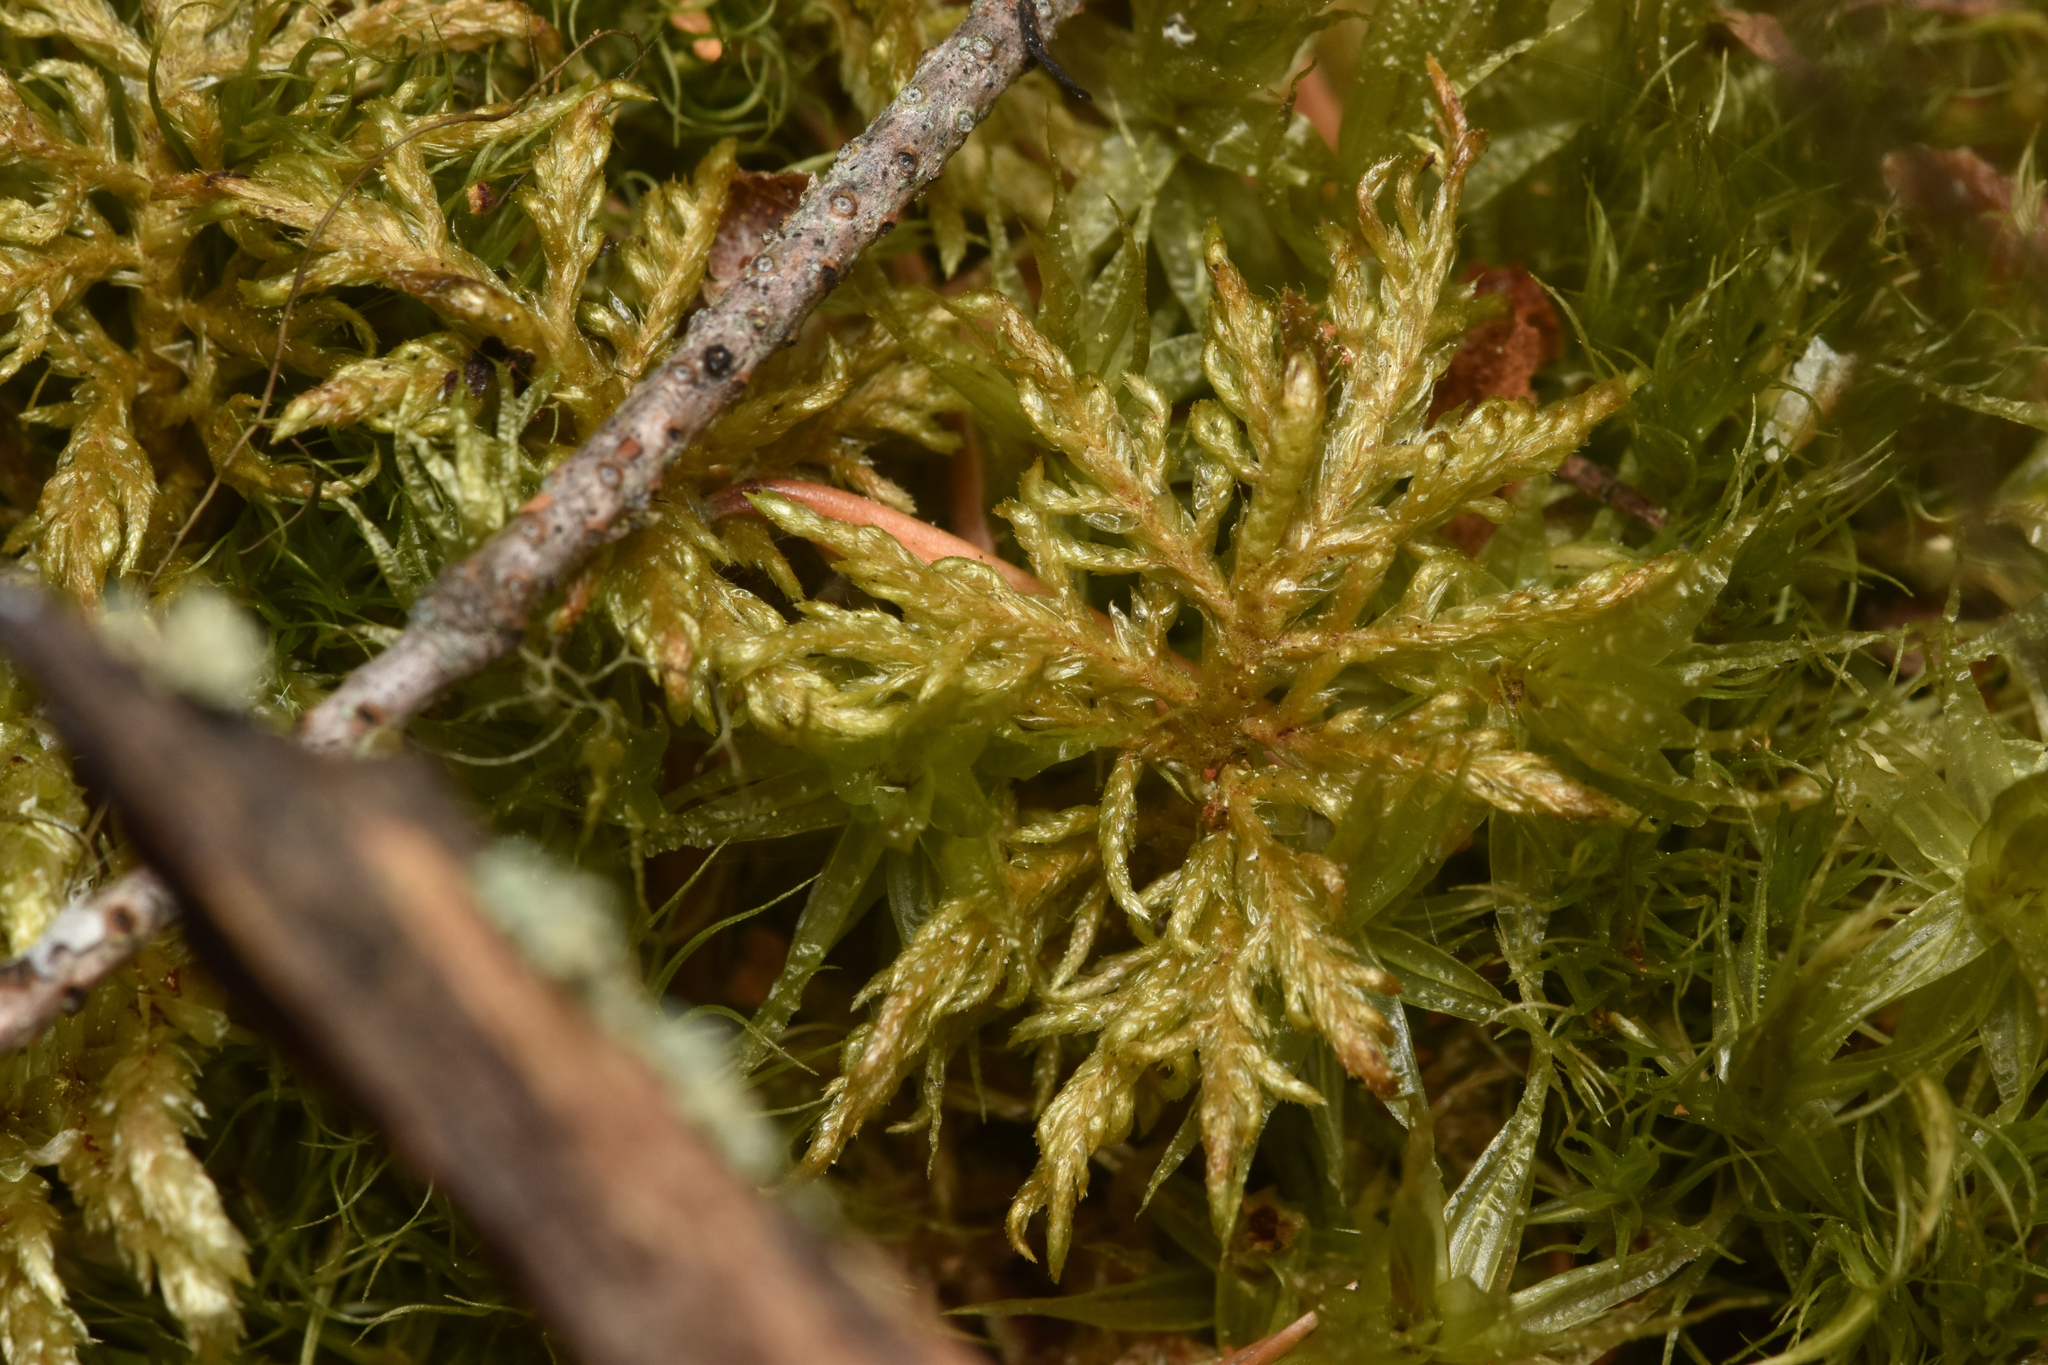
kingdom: Plantae
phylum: Bryophyta
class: Bryopsida
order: Hypnales
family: Hylocomiaceae
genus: Hylocomium
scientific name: Hylocomium splendens
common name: Stairstep moss
